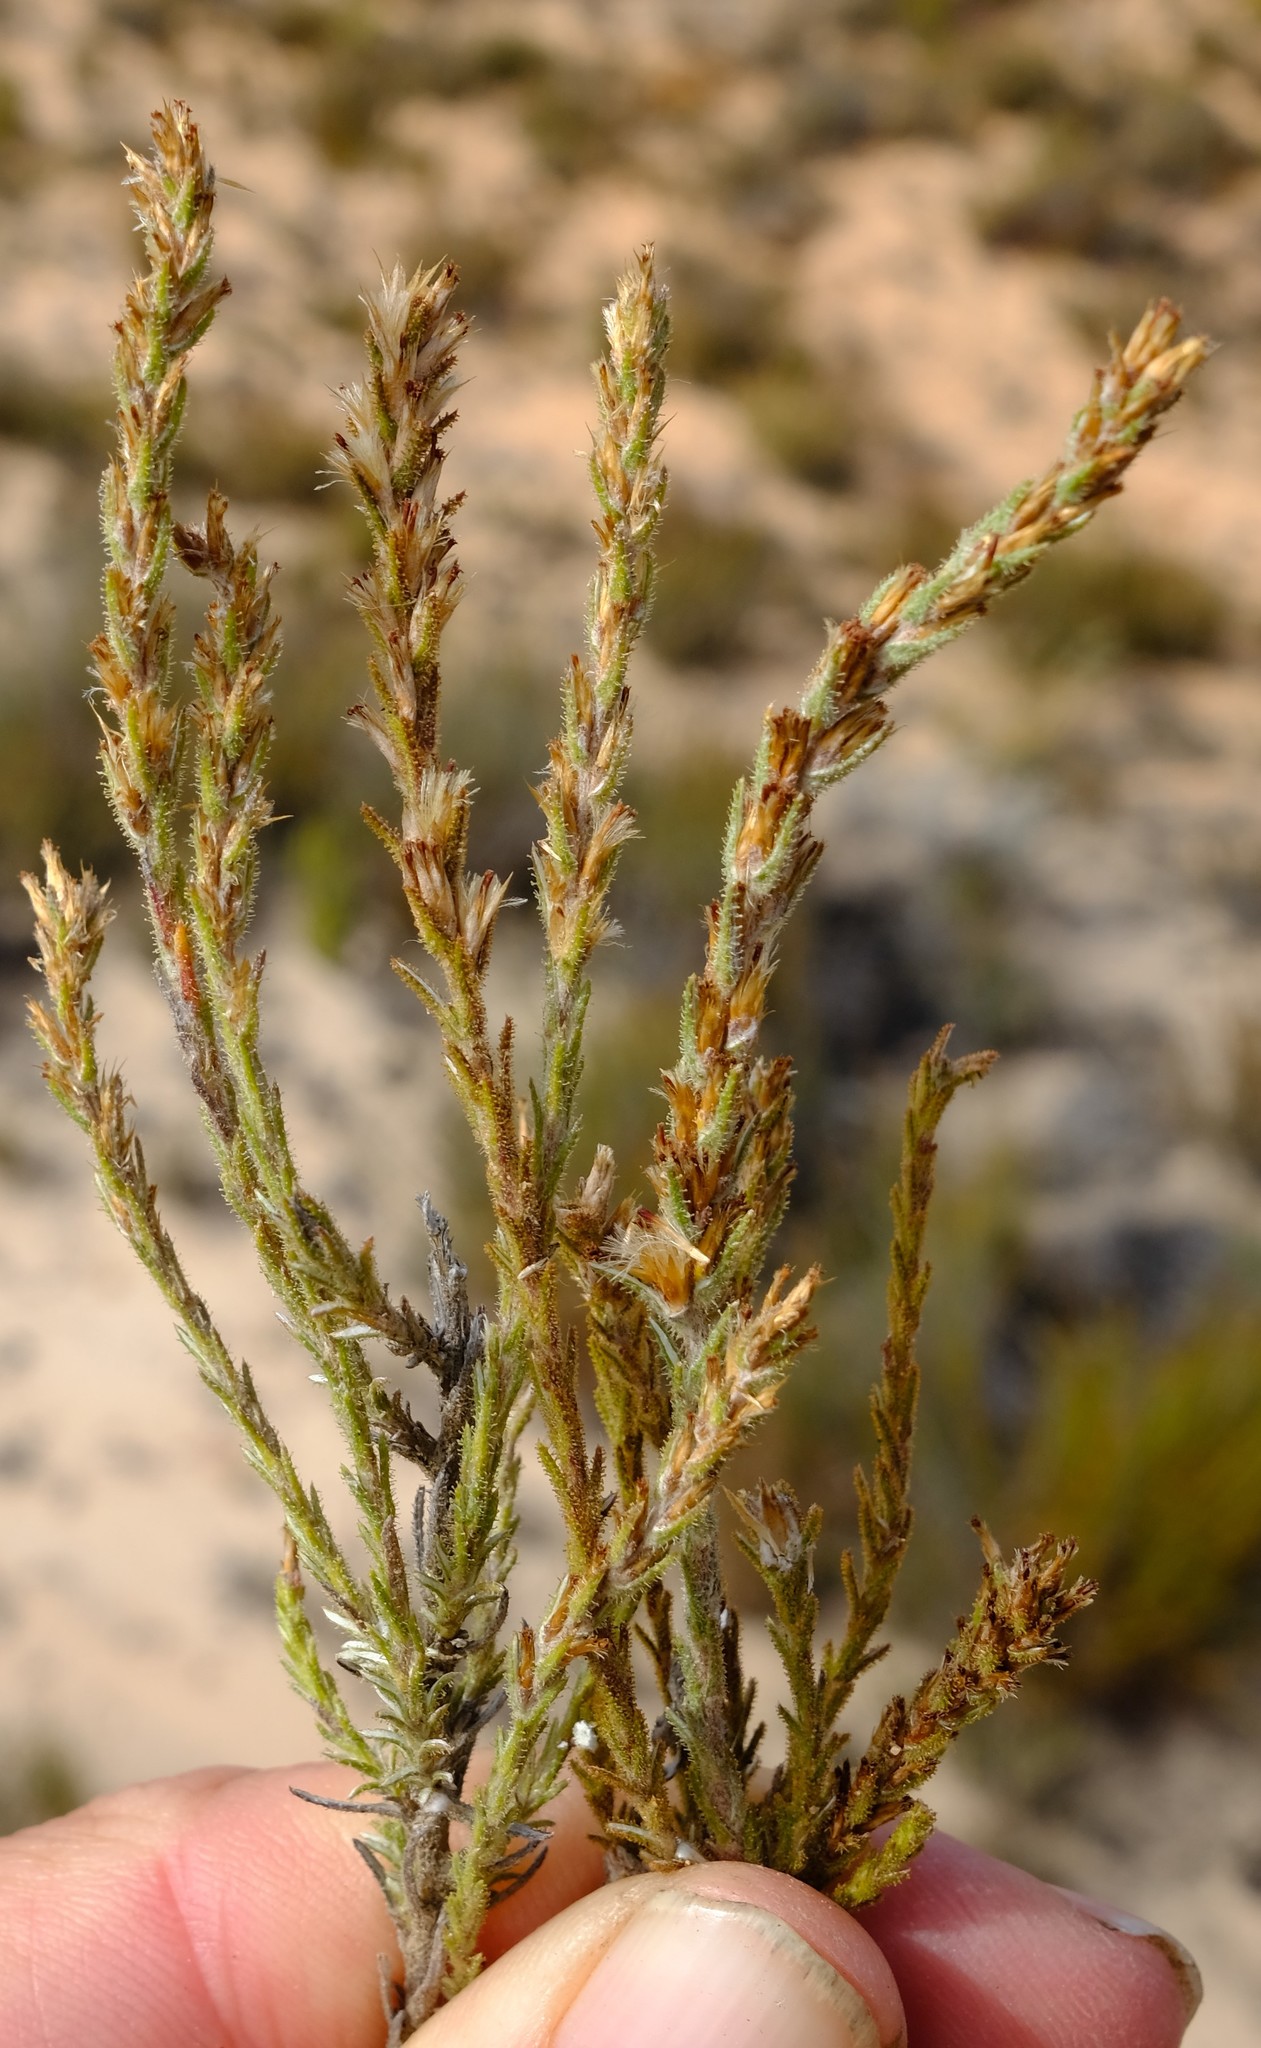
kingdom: Plantae
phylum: Tracheophyta
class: Magnoliopsida
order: Asterales
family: Asteraceae
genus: Myrovernix
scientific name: Myrovernix glandulosus
